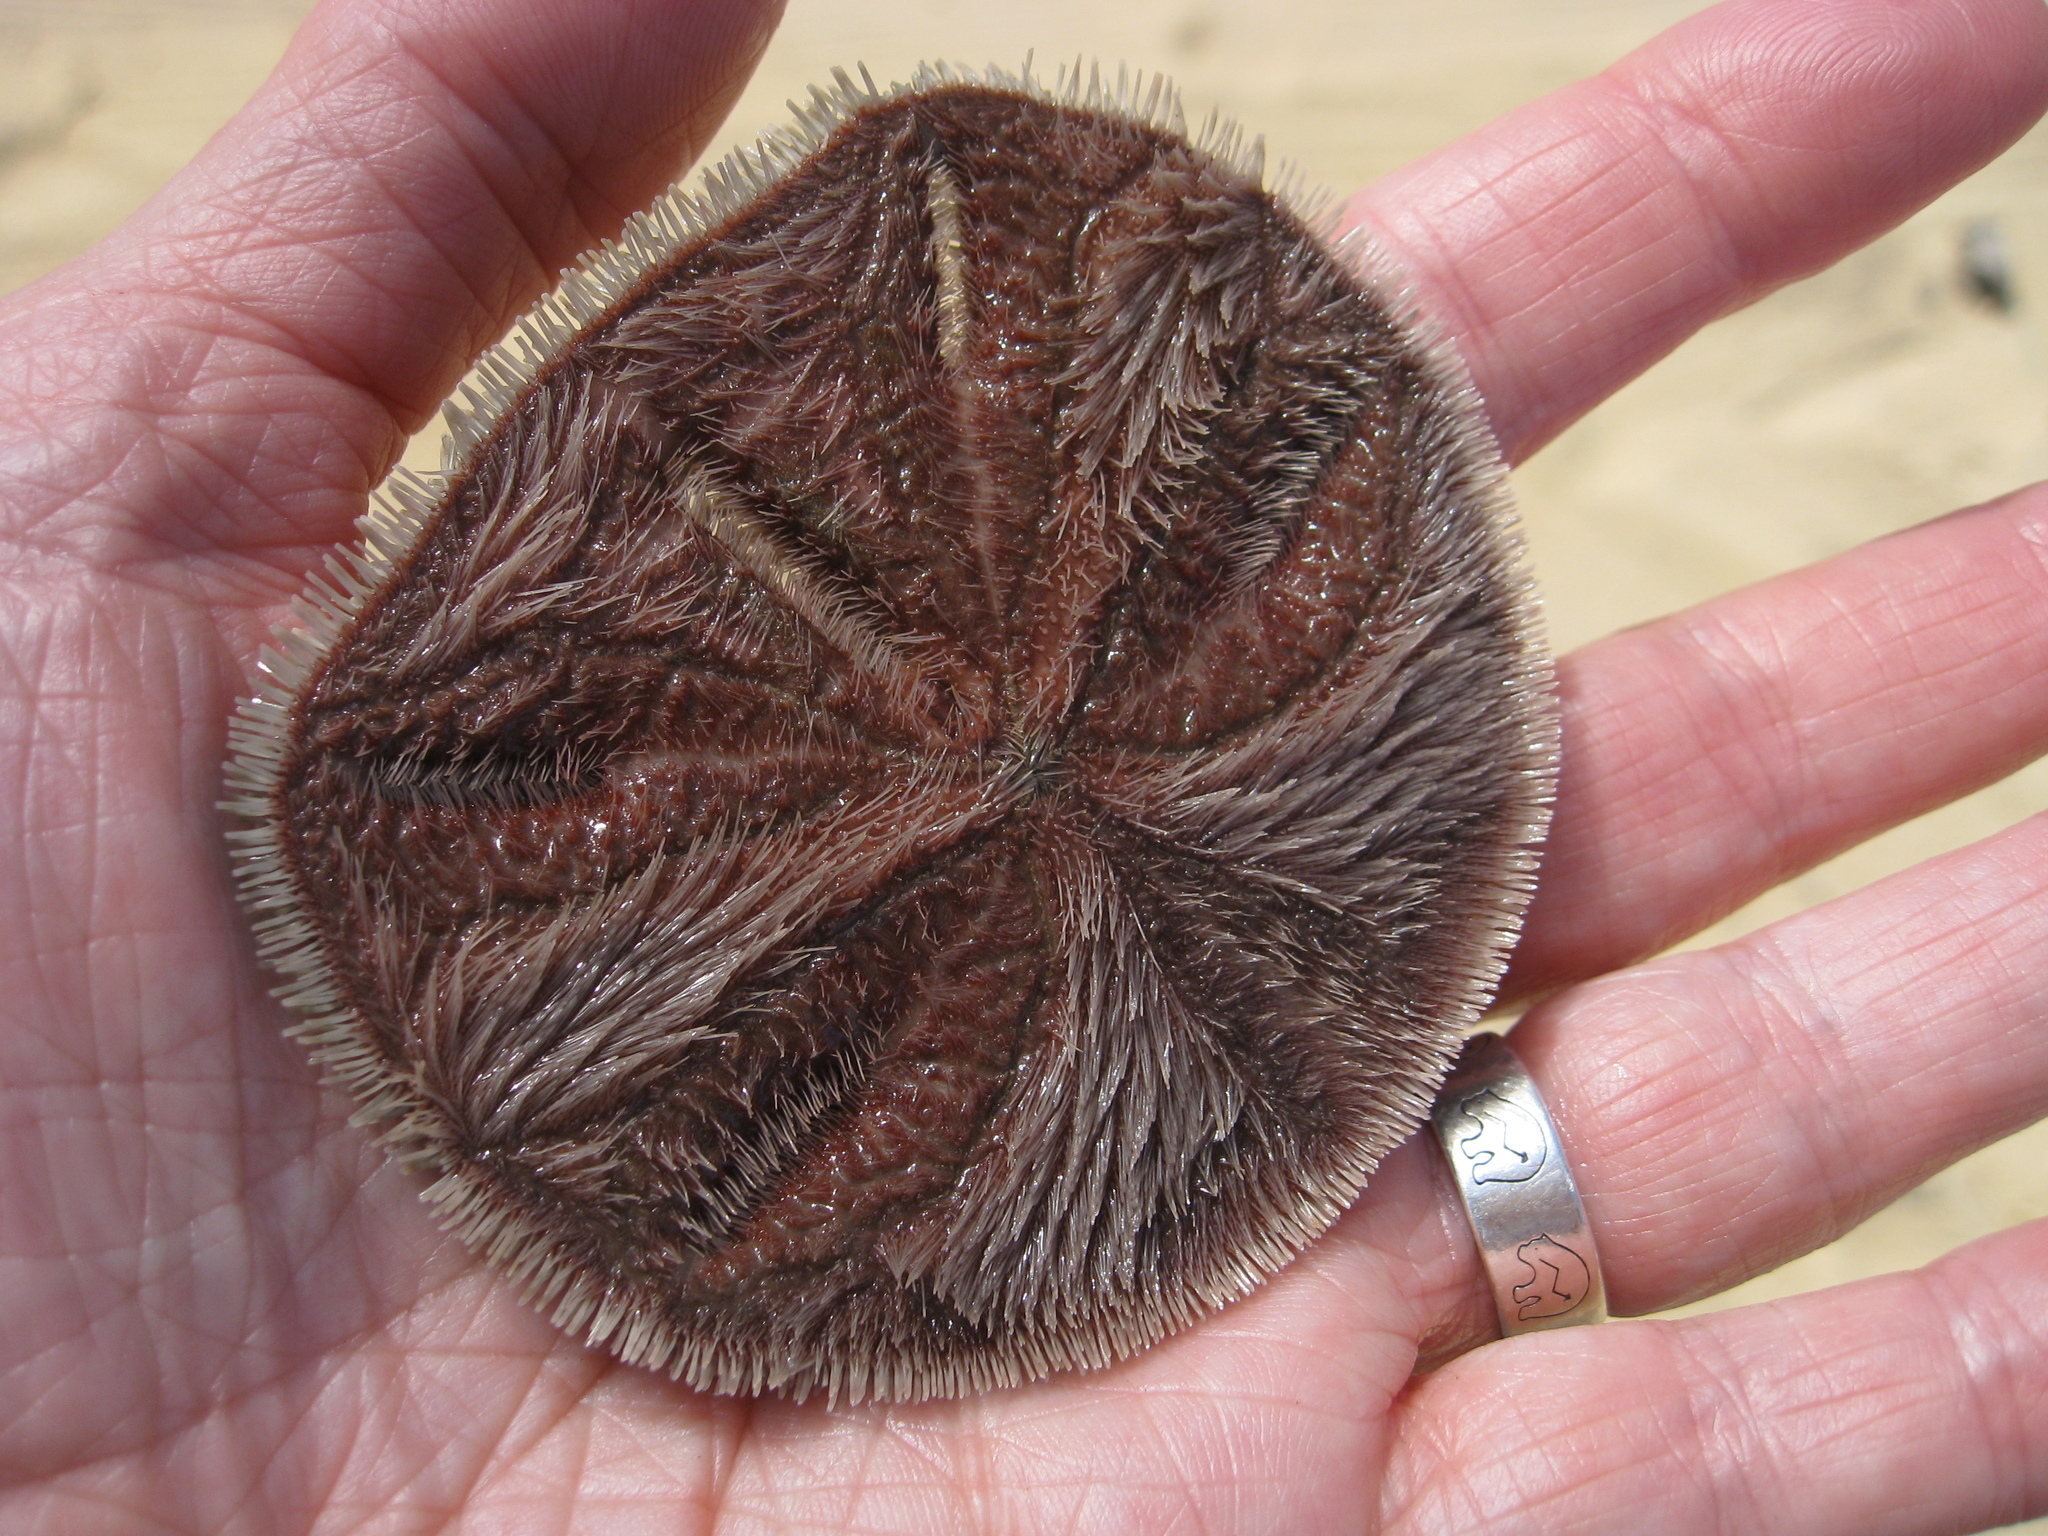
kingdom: Animalia
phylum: Echinodermata
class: Echinoidea
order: Echinolampadacea
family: Mellitidae
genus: Mellita
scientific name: Mellita quinquiesperforata
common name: Sand dollar
